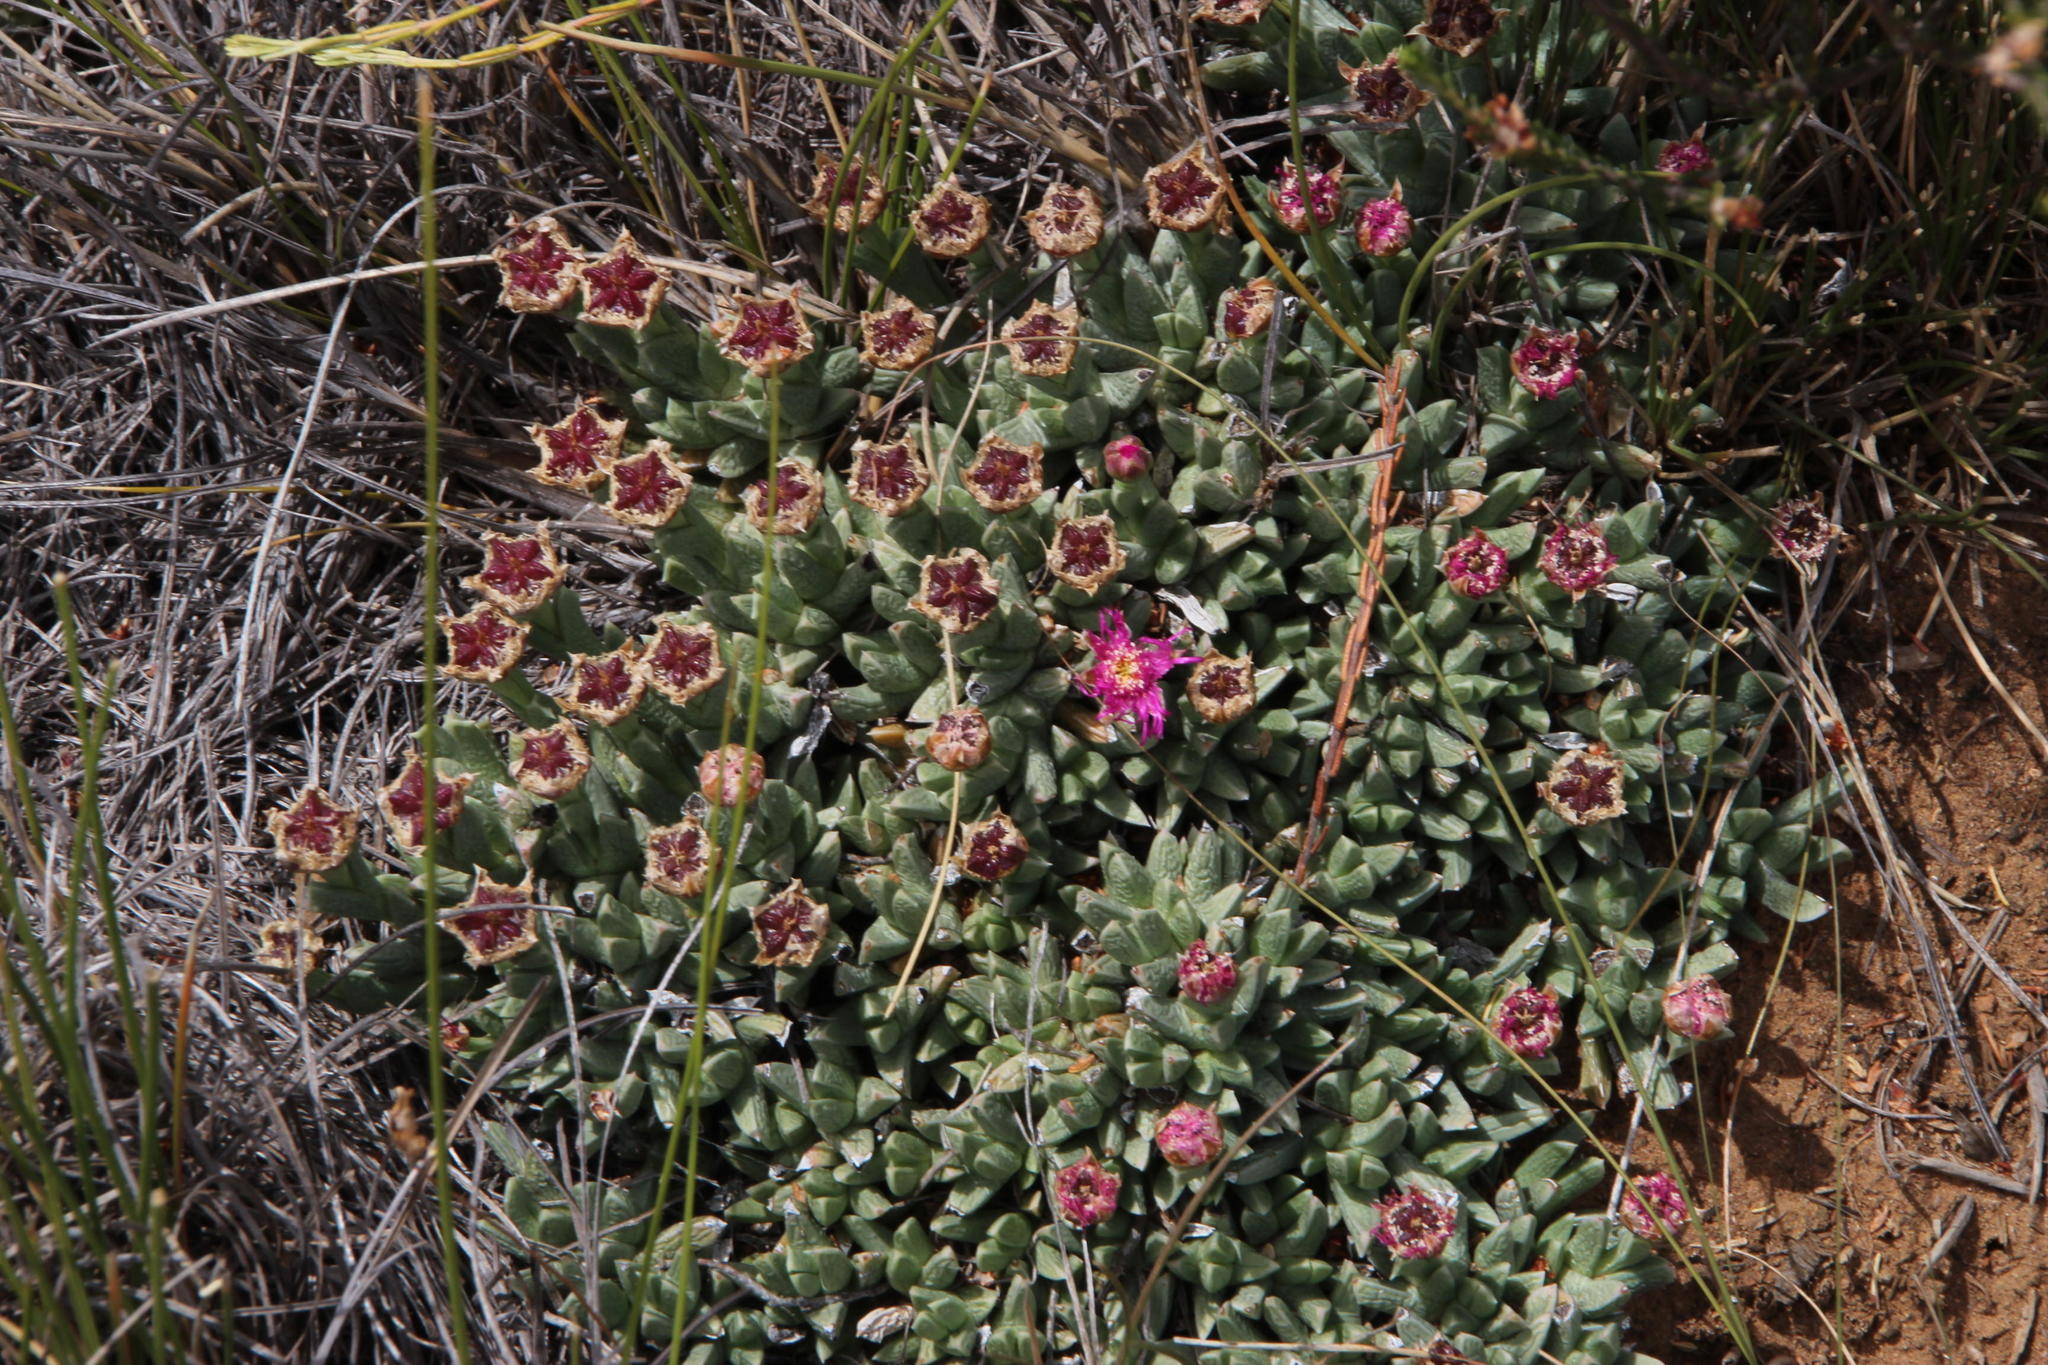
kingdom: Plantae
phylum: Tracheophyta
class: Magnoliopsida
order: Caryophyllales
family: Aizoaceae
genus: Ruschia
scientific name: Ruschia indurata
